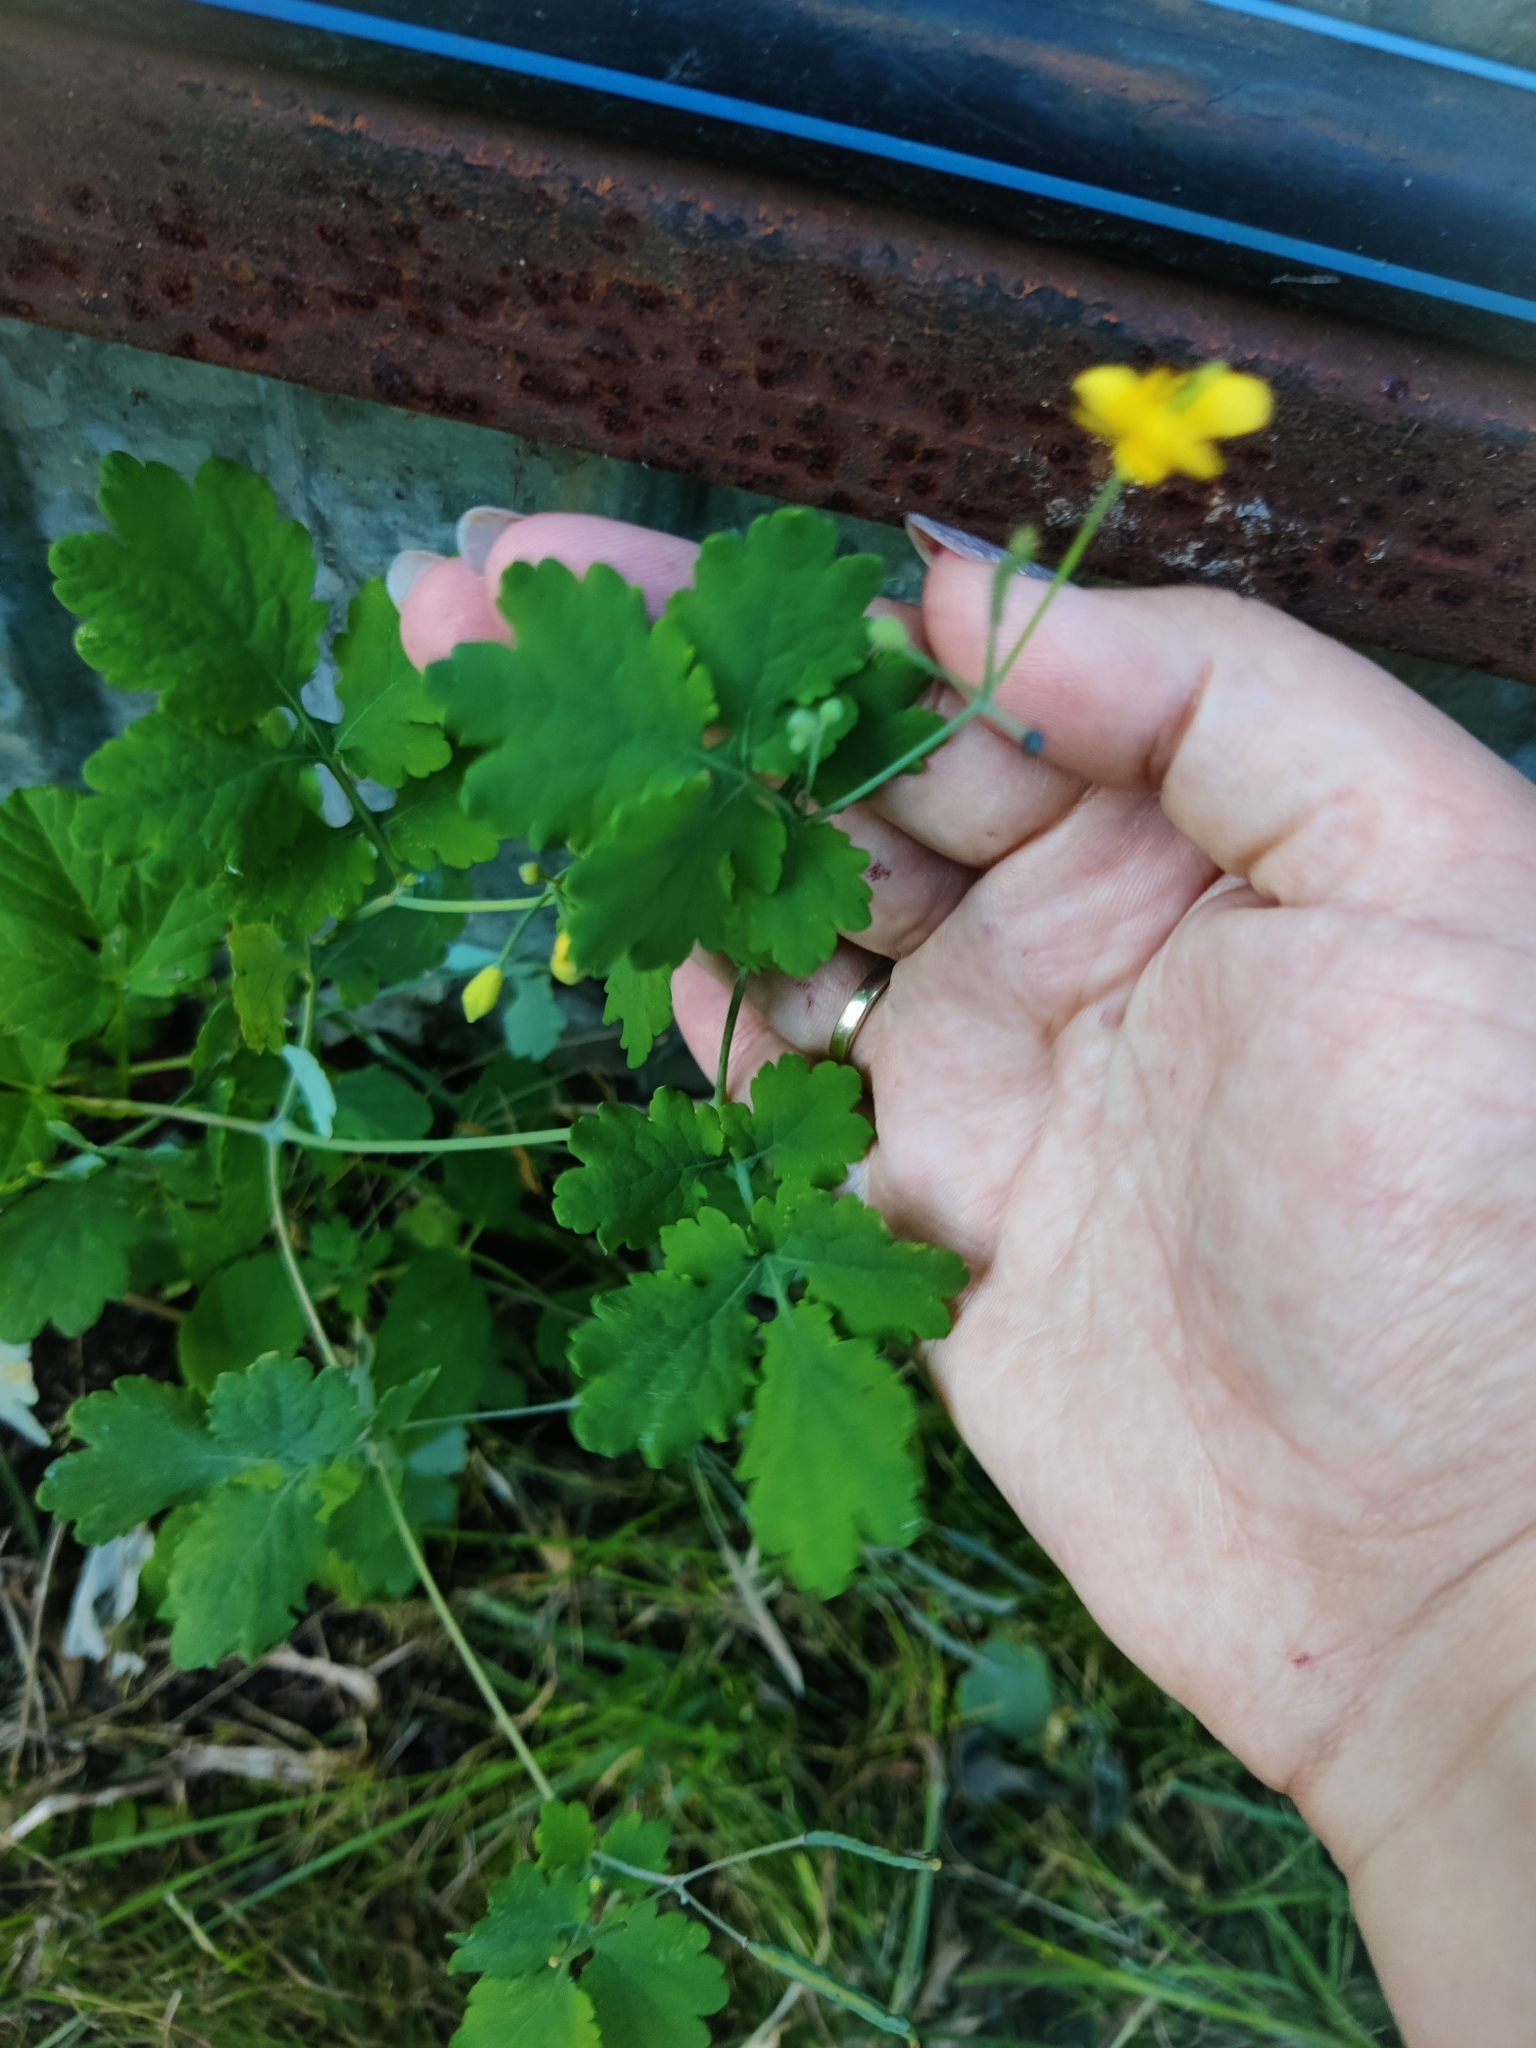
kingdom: Plantae
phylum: Tracheophyta
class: Magnoliopsida
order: Ranunculales
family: Papaveraceae
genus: Chelidonium
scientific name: Chelidonium majus
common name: Greater celandine
